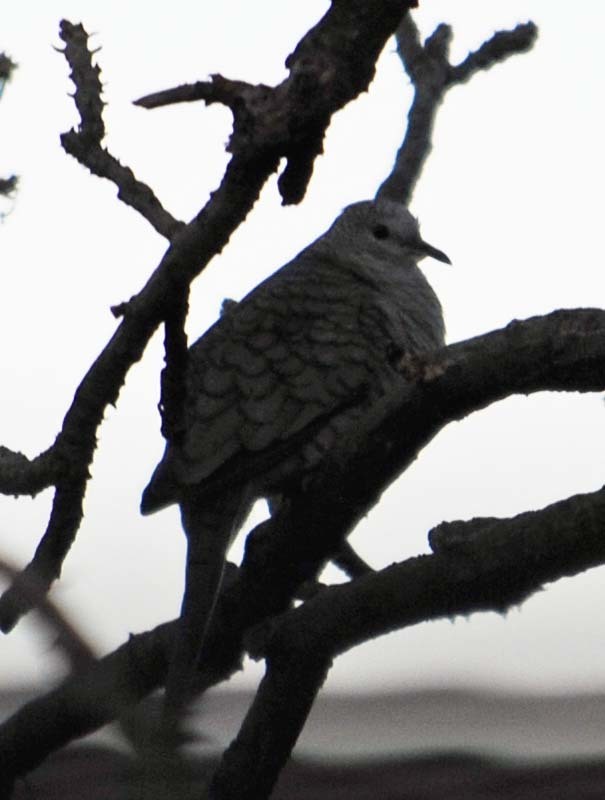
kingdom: Animalia
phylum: Chordata
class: Aves
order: Columbiformes
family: Columbidae
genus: Columbina
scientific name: Columbina inca
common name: Inca dove
